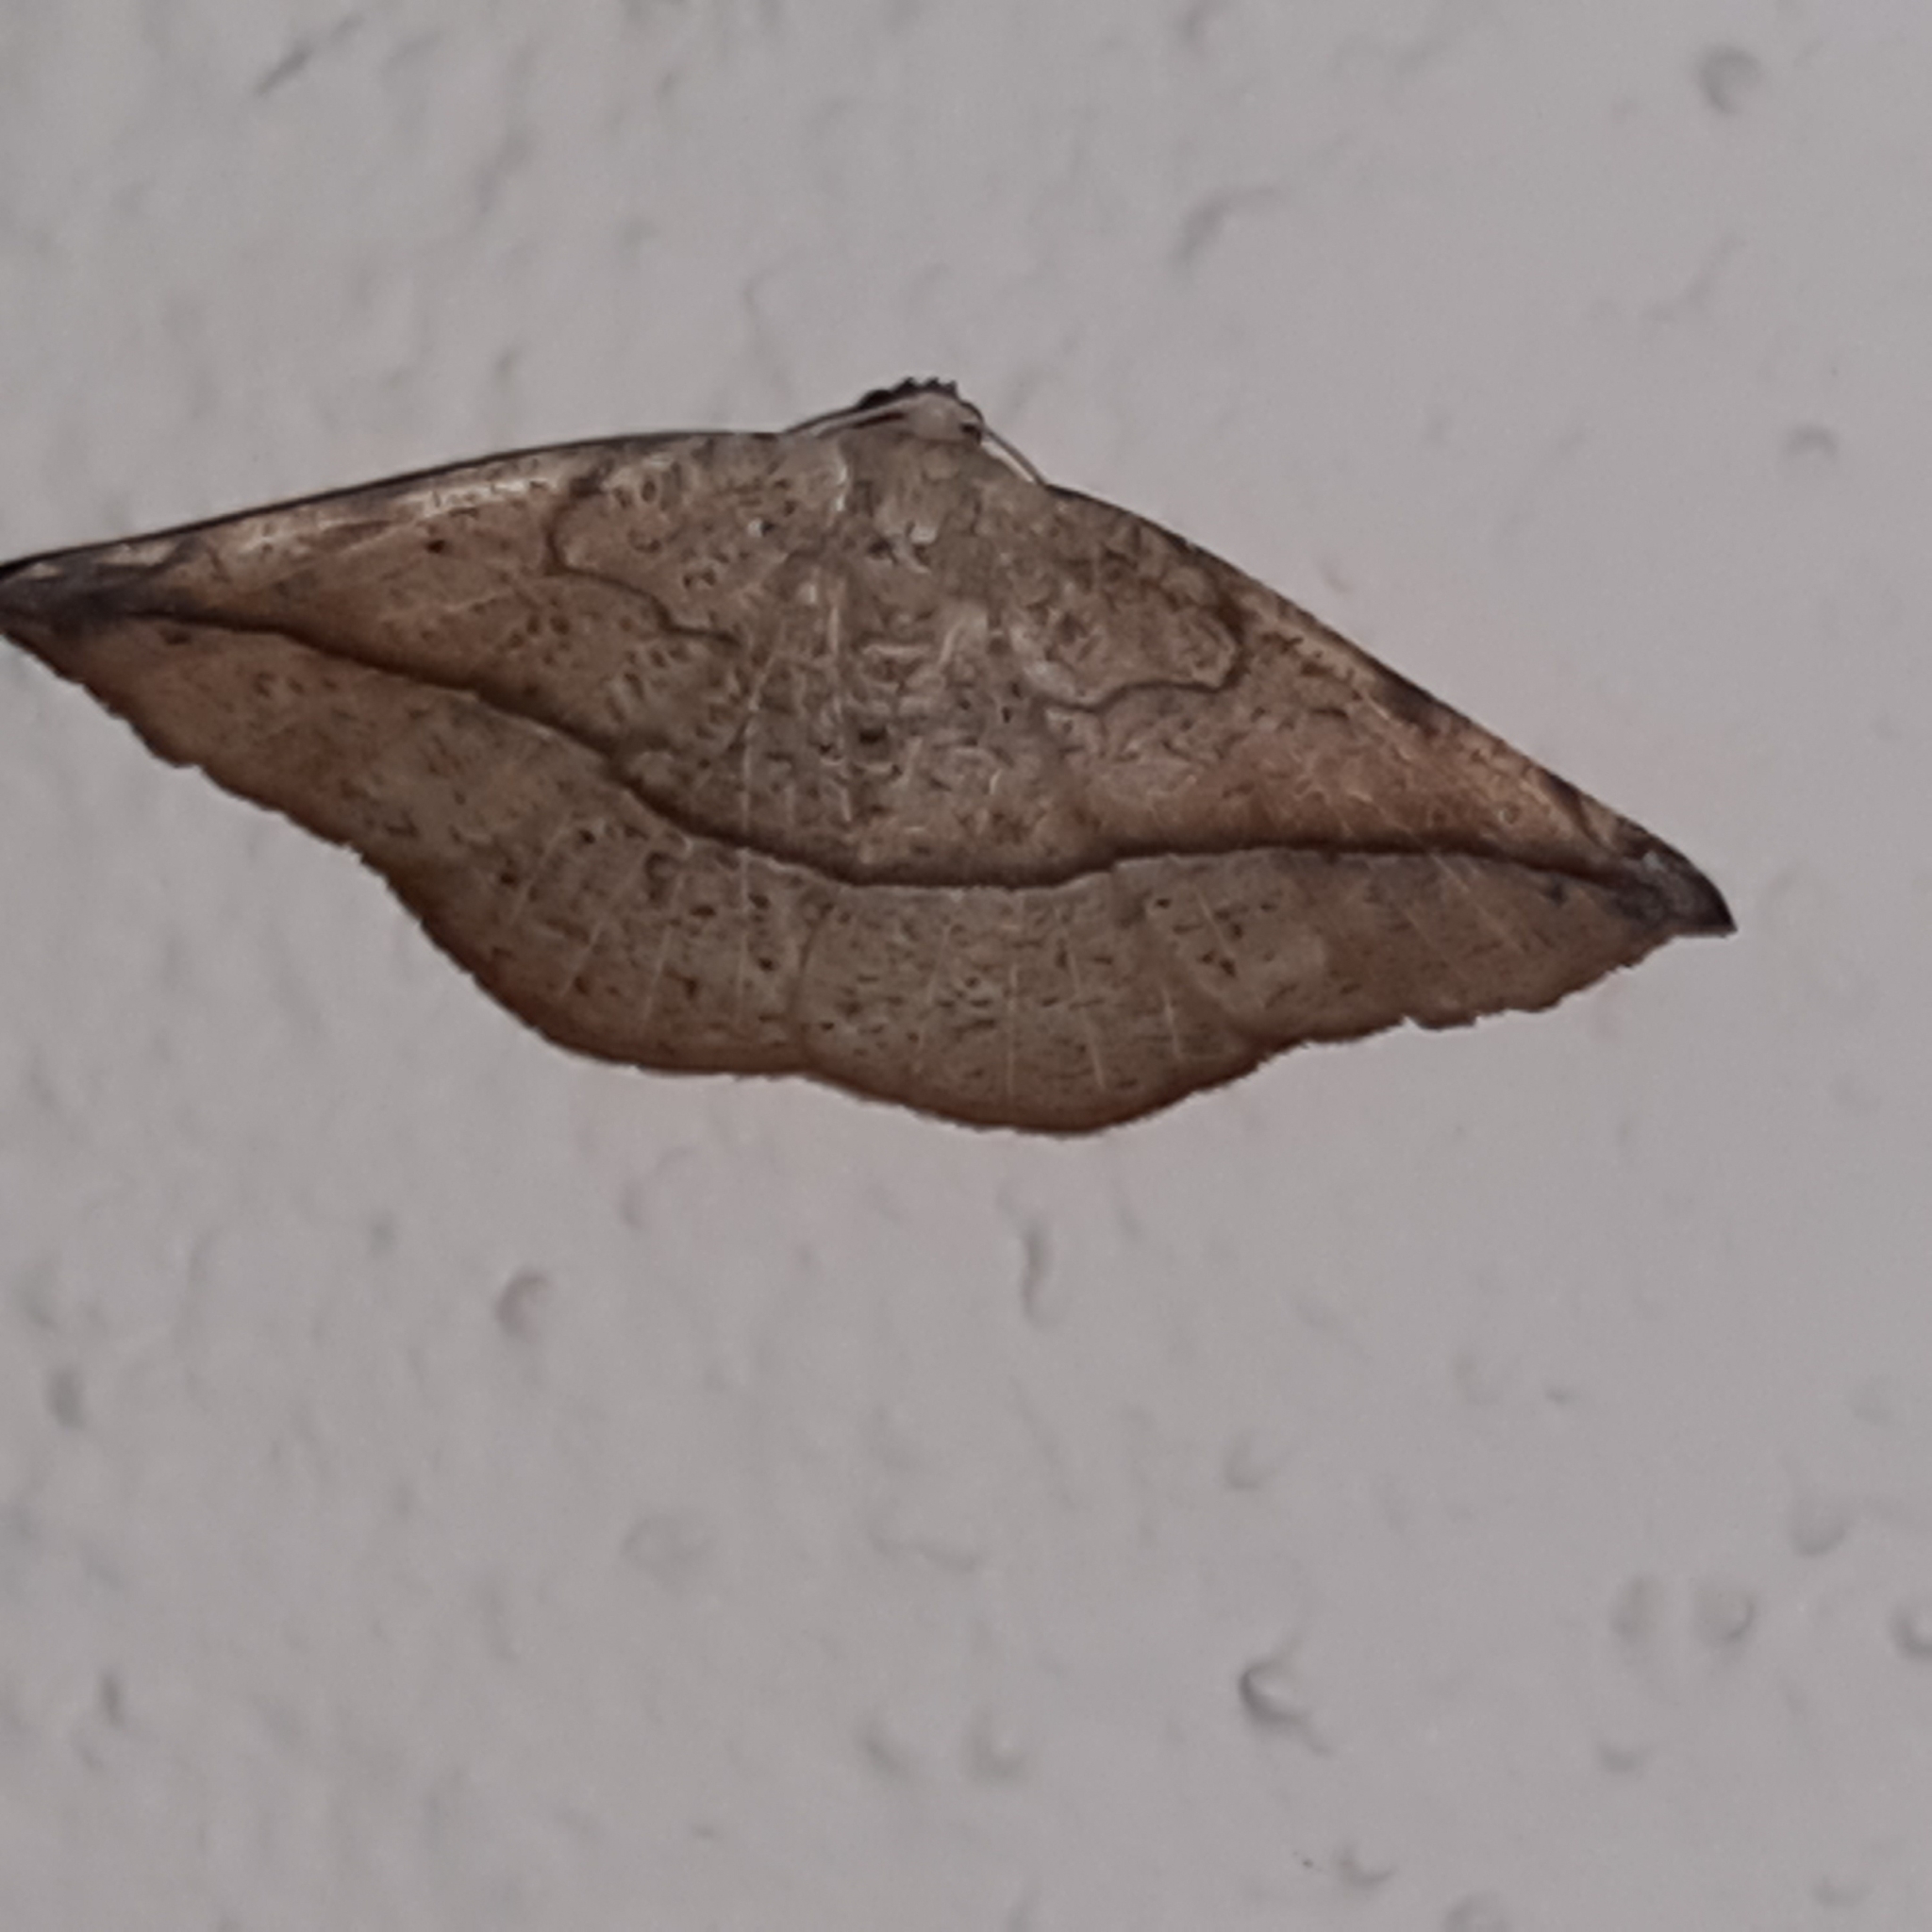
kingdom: Animalia
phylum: Arthropoda
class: Insecta
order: Lepidoptera
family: Geometridae
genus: Eusarca
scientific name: Eusarca cayennaria
